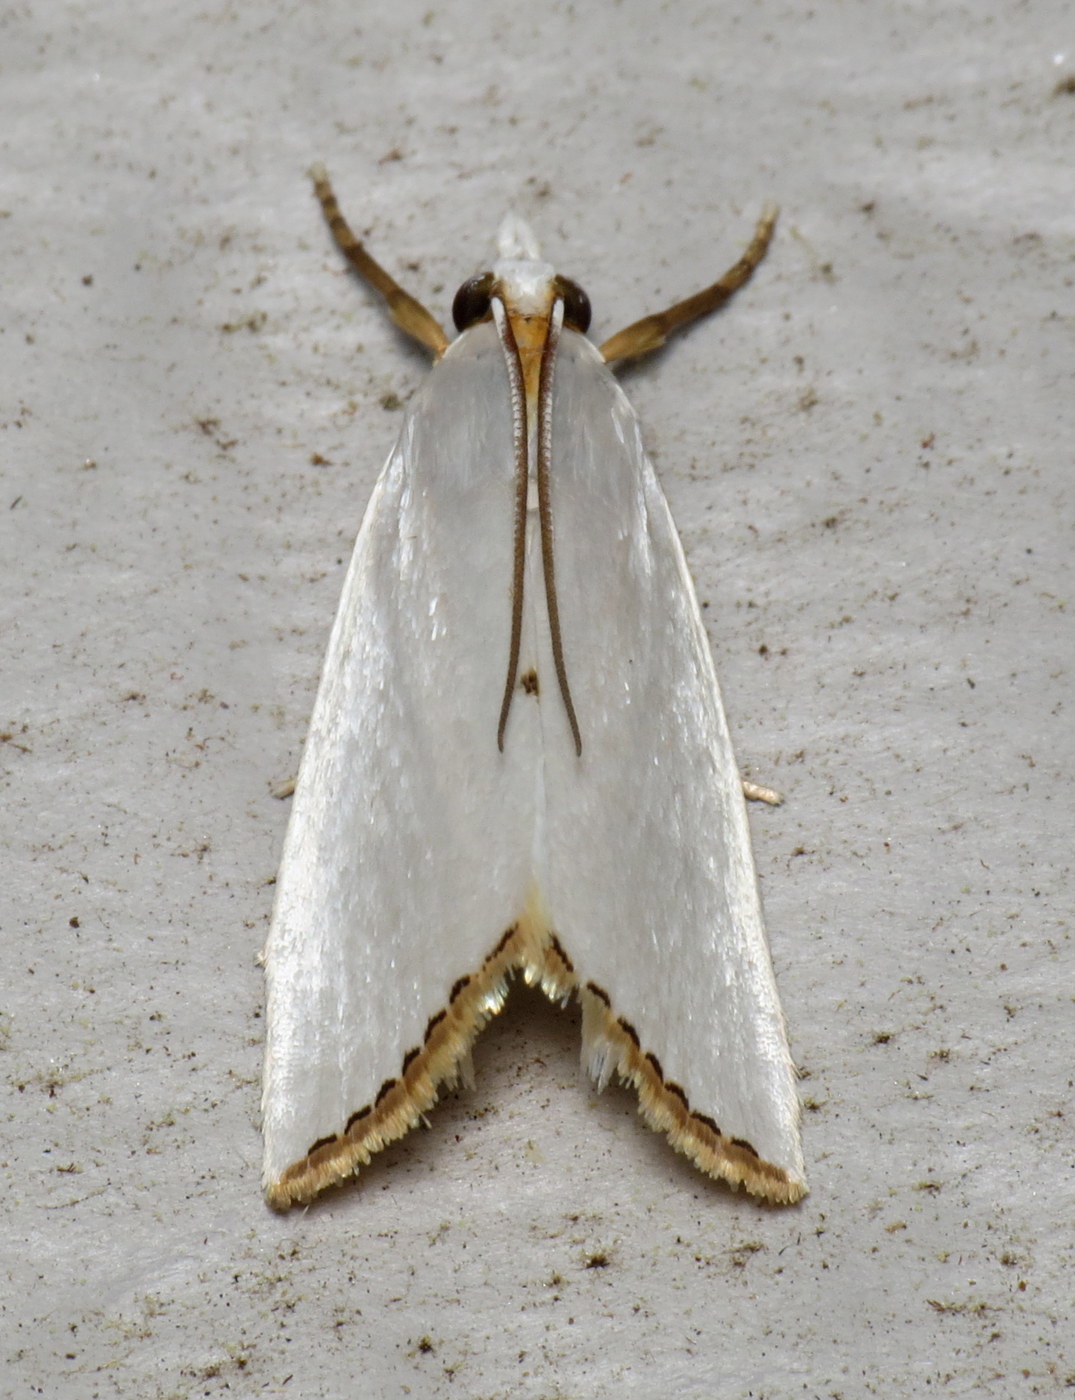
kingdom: Animalia
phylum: Arthropoda
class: Insecta
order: Lepidoptera
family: Crambidae
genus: Argyria
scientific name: Argyria nivalis
